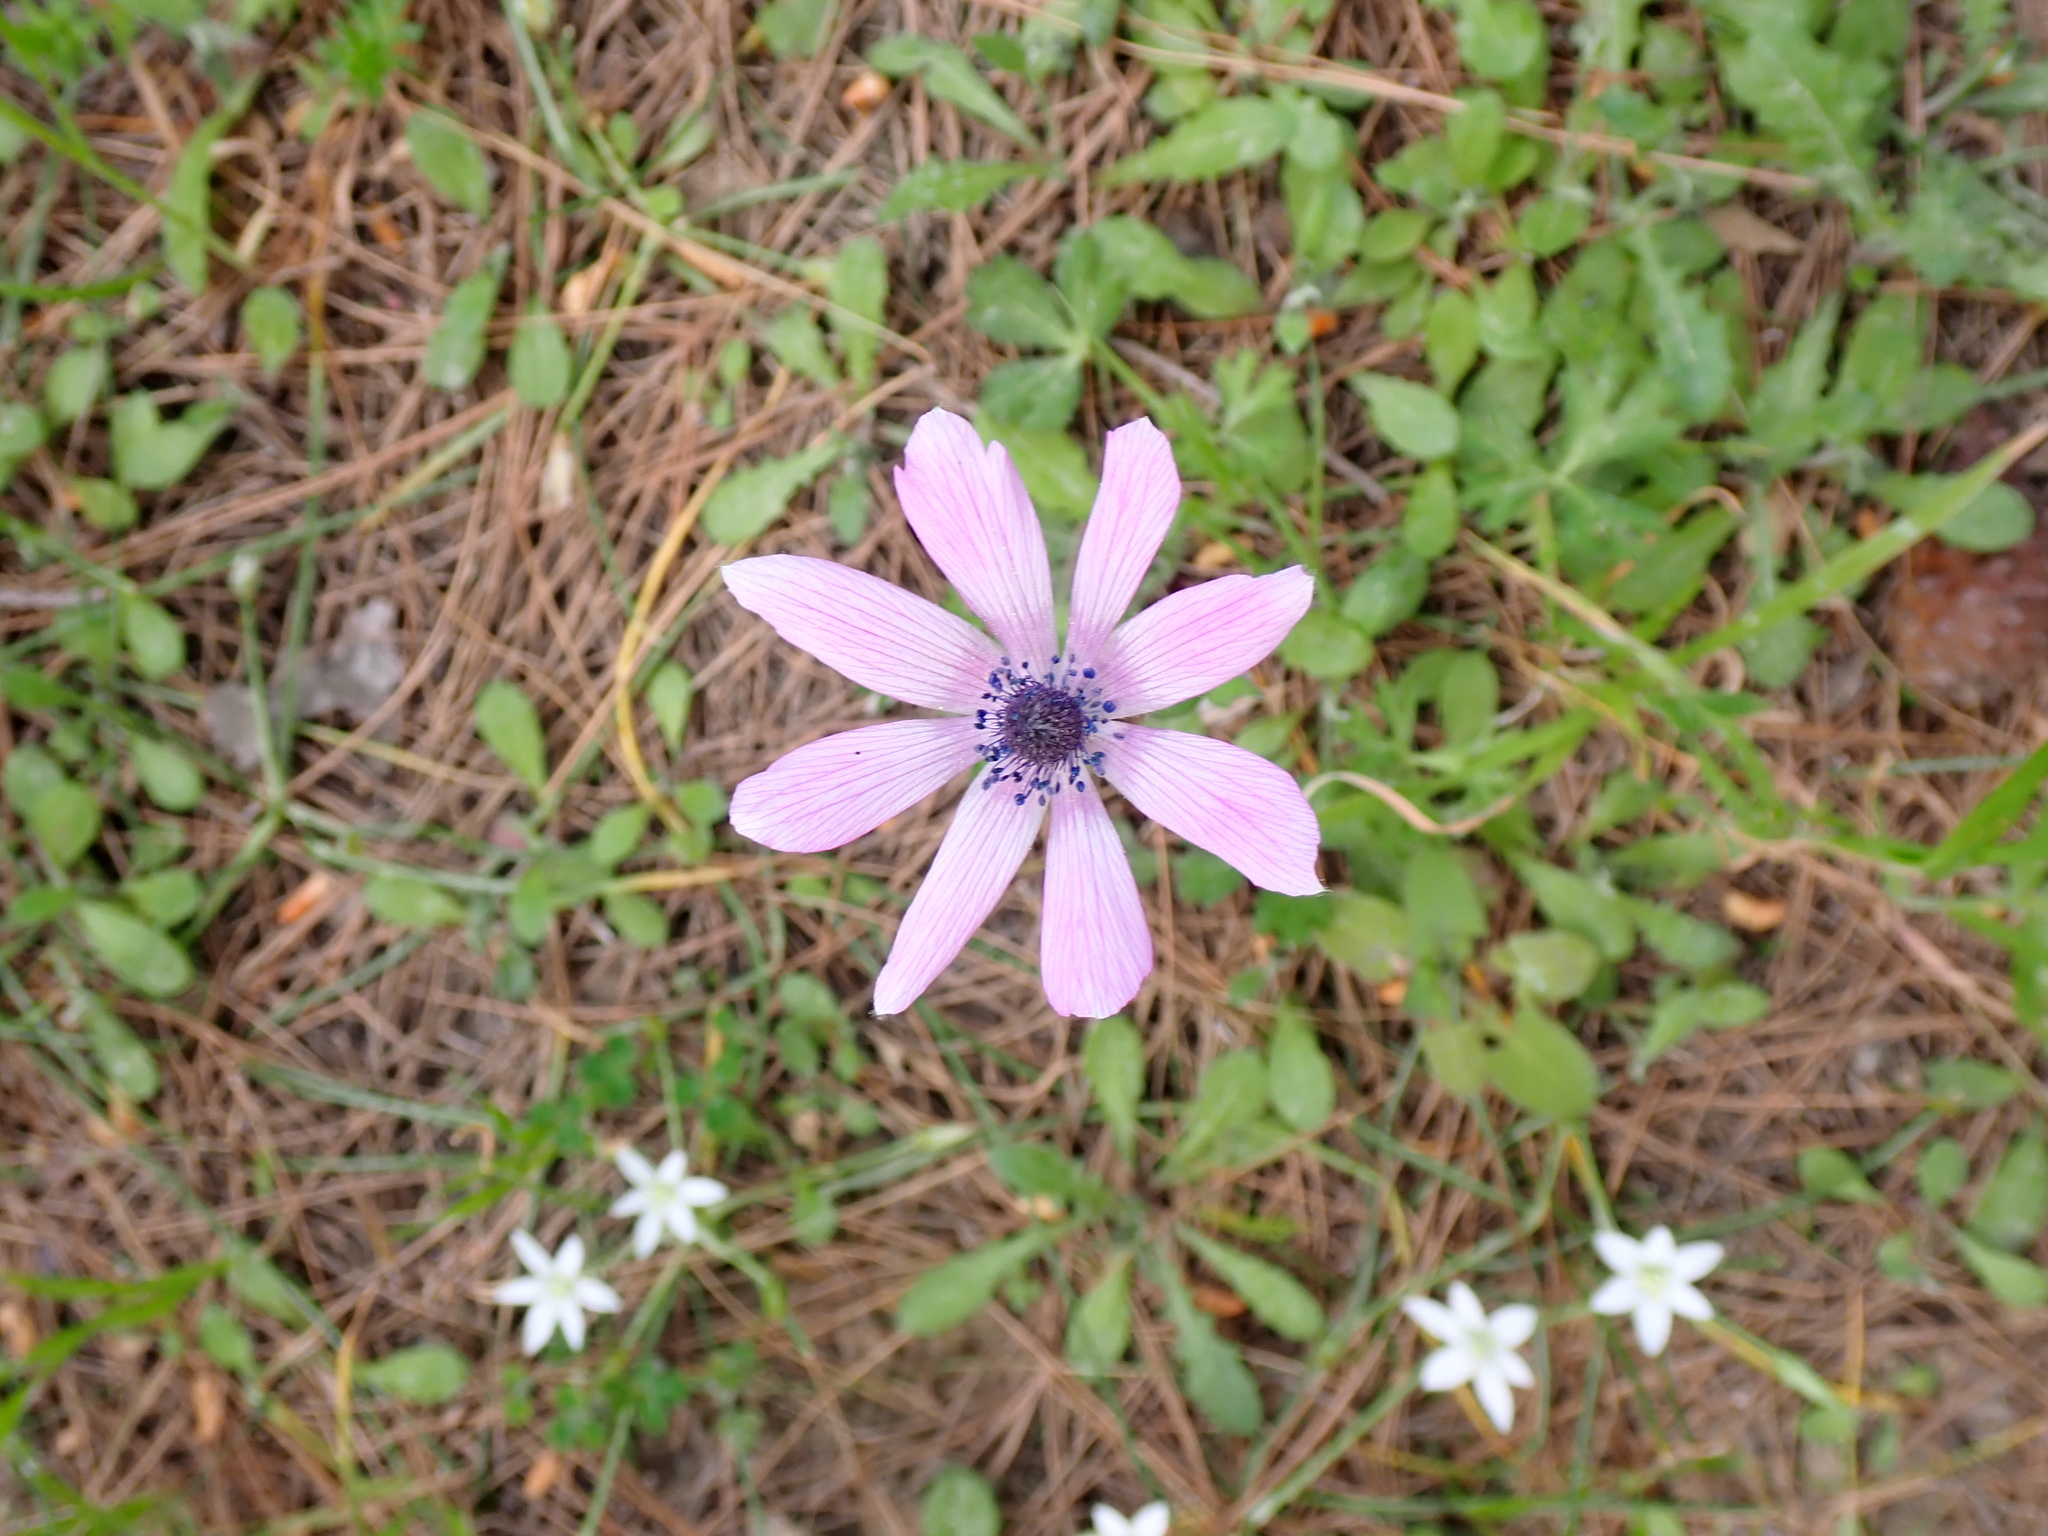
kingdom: Plantae
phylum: Tracheophyta
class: Magnoliopsida
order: Ranunculales
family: Ranunculaceae
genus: Anemone
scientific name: Anemone pavonina
